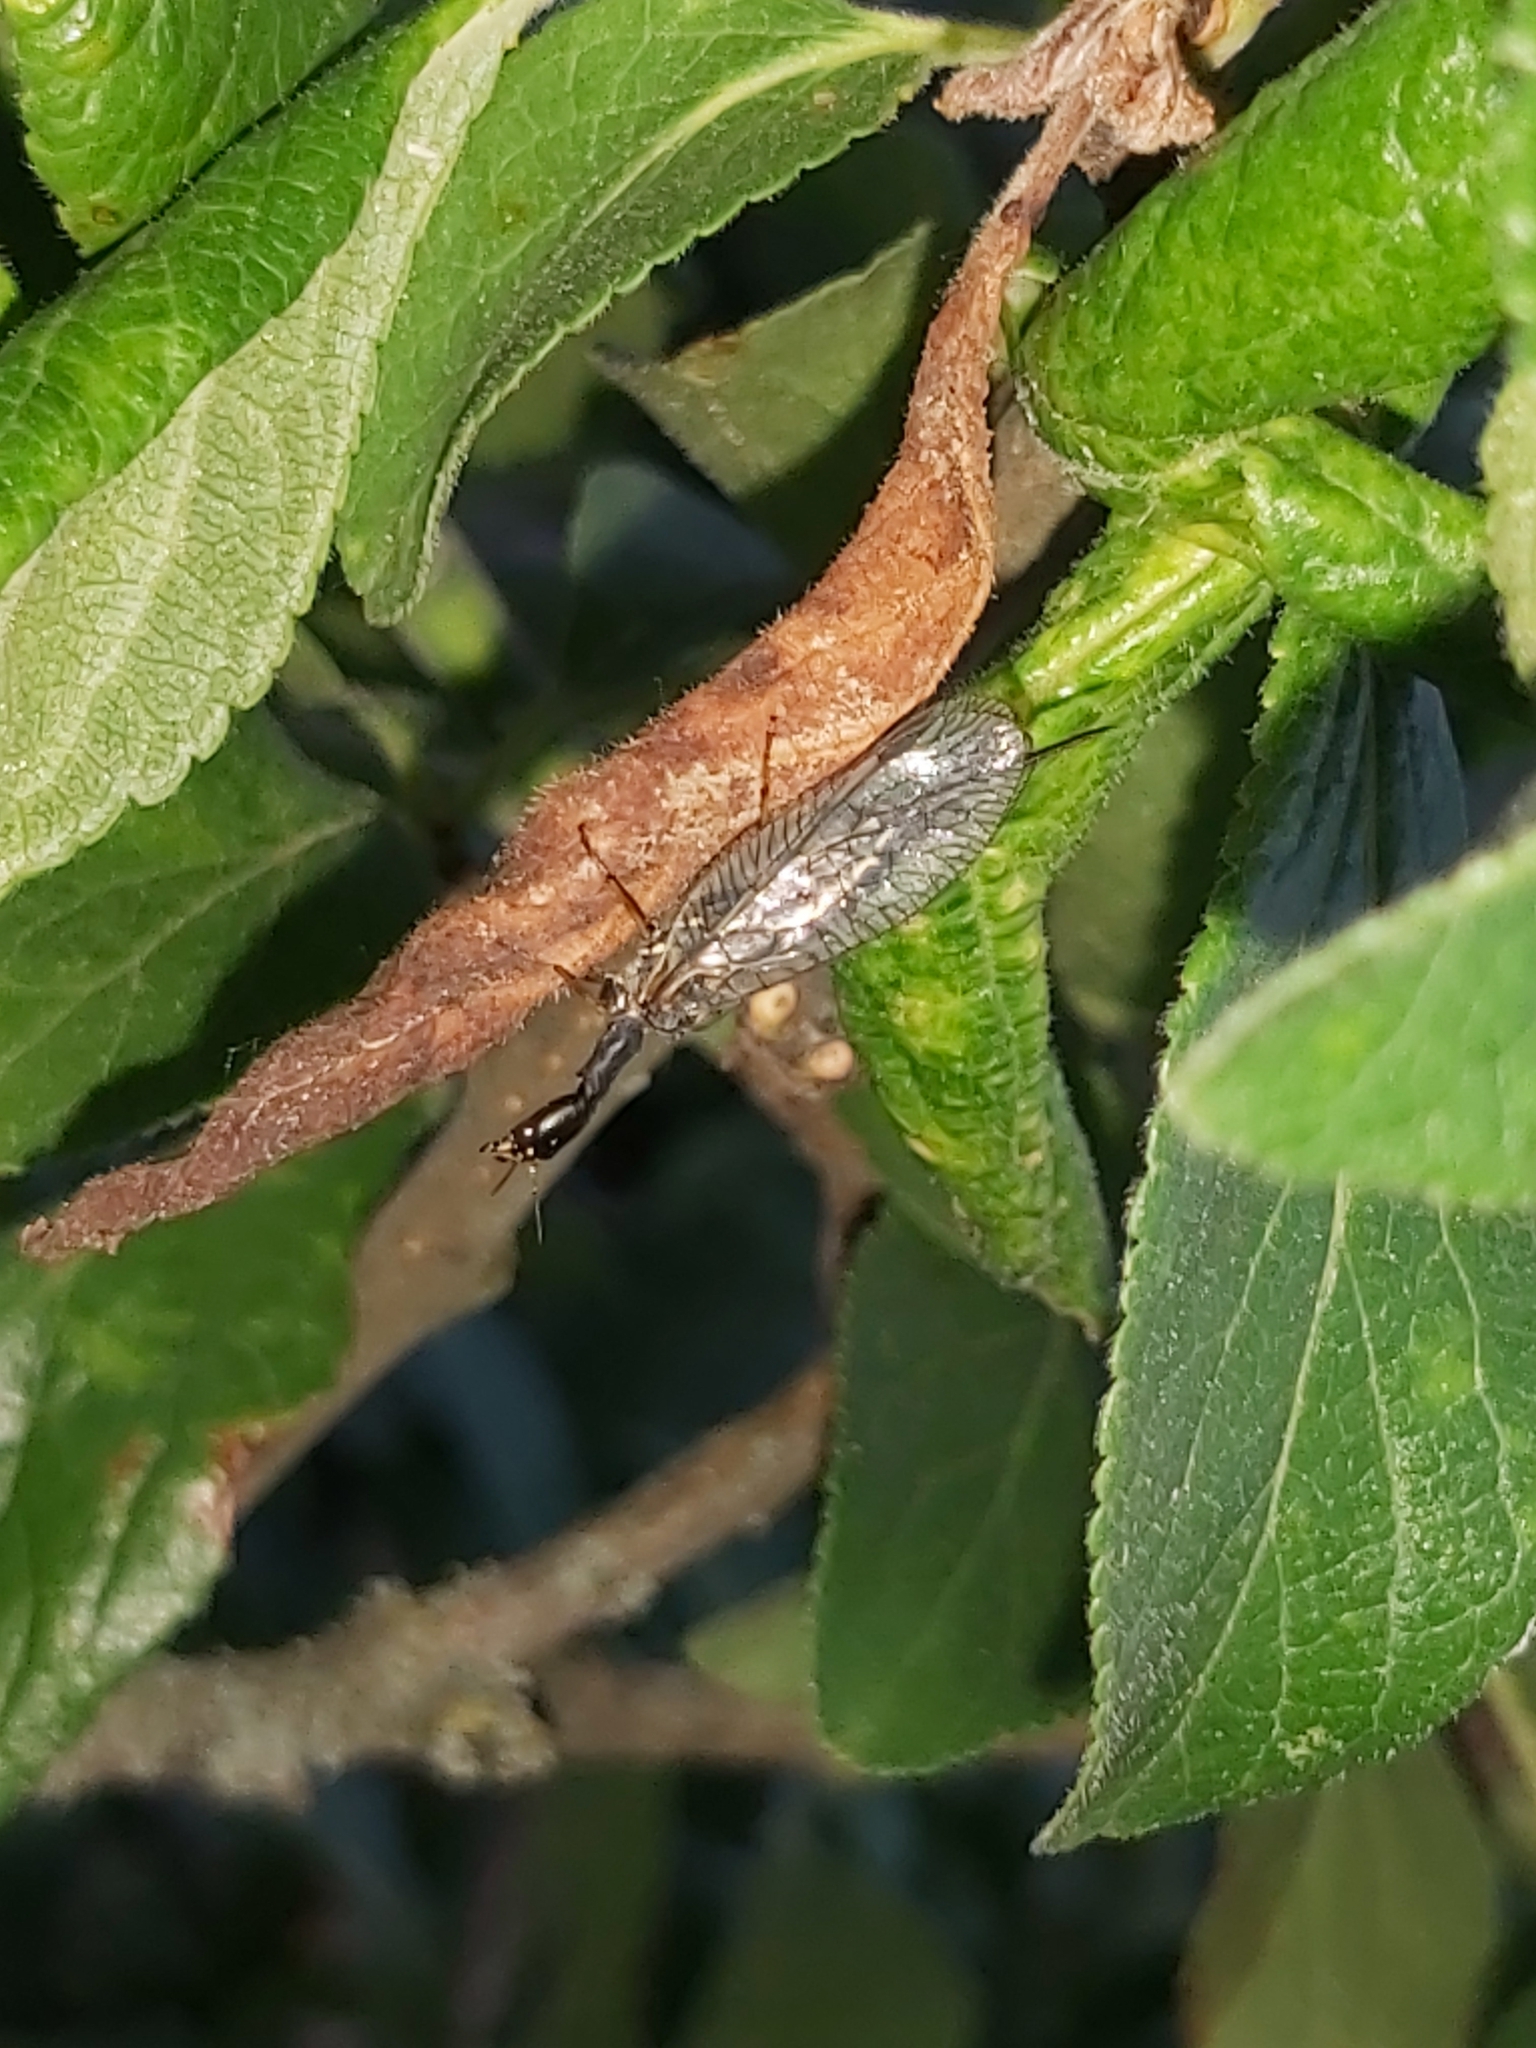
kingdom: Animalia
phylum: Arthropoda
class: Insecta
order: Raphidioptera
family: Raphidiidae
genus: Phaeostigma
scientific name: Phaeostigma notatum
